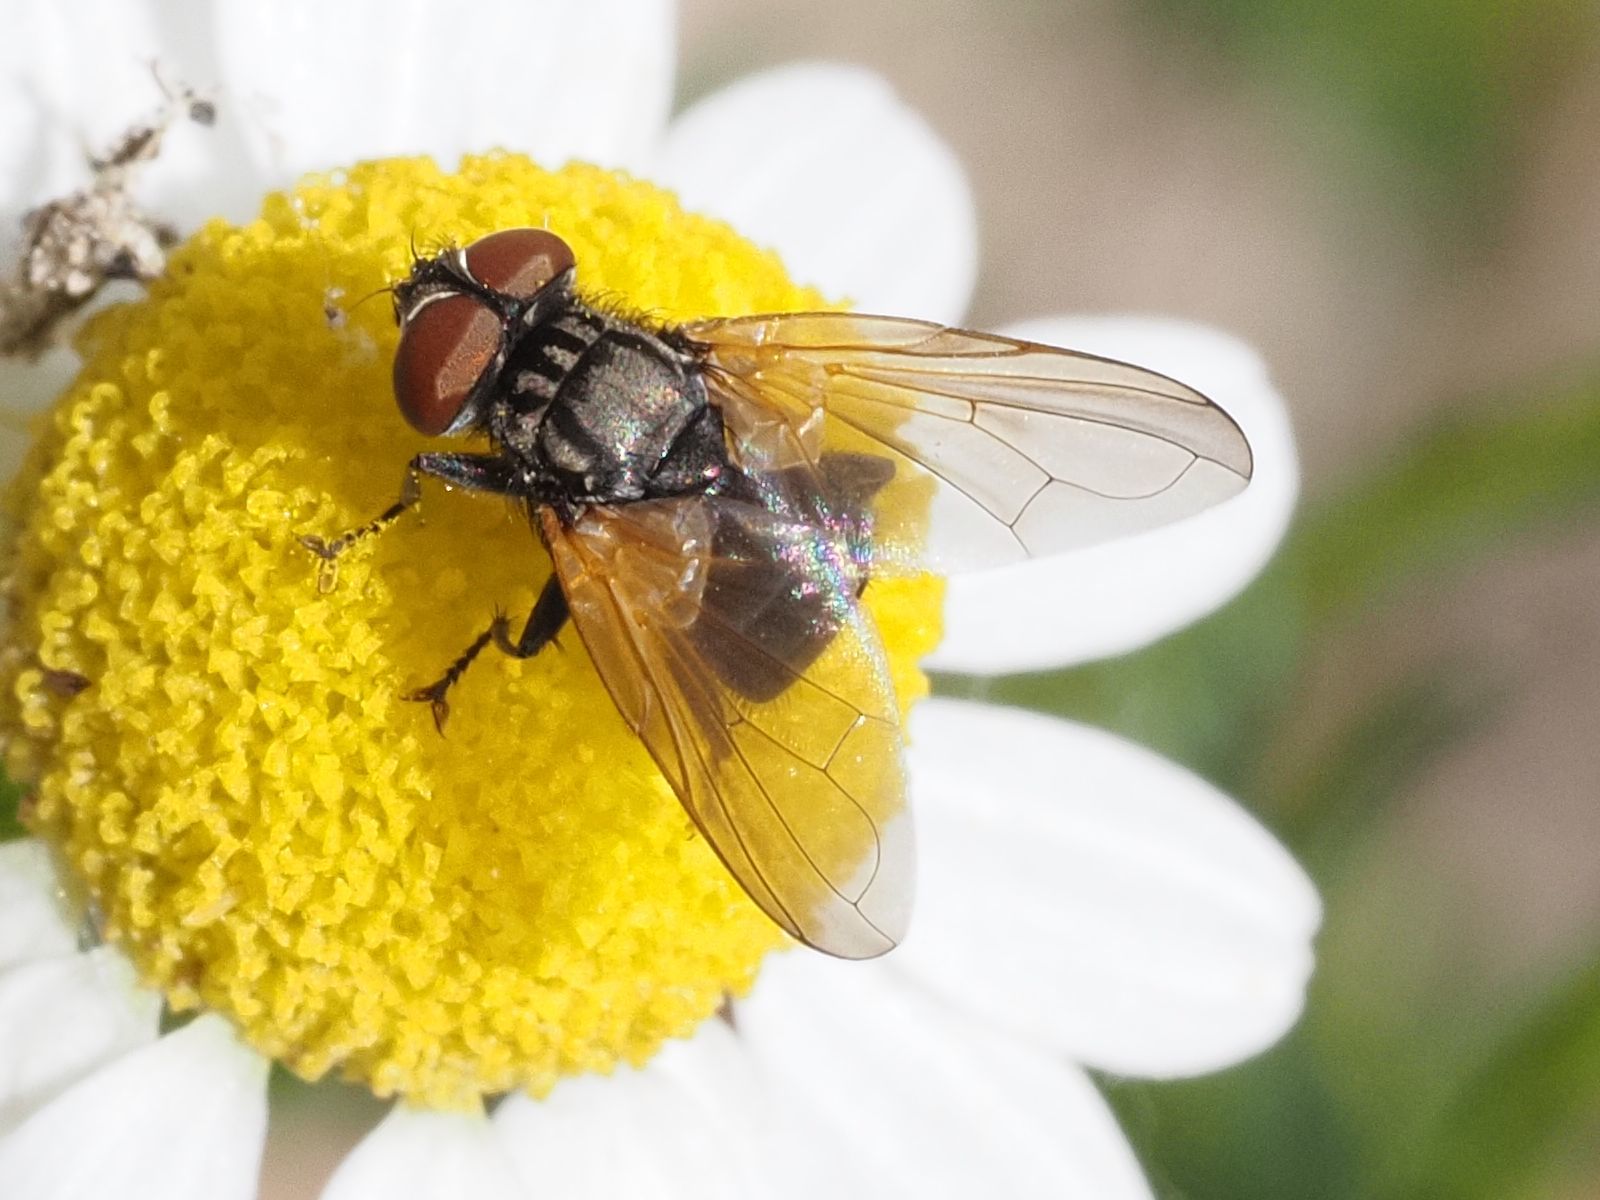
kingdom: Animalia
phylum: Arthropoda
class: Insecta
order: Diptera
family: Tachinidae
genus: Phasia
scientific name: Phasia obesa
